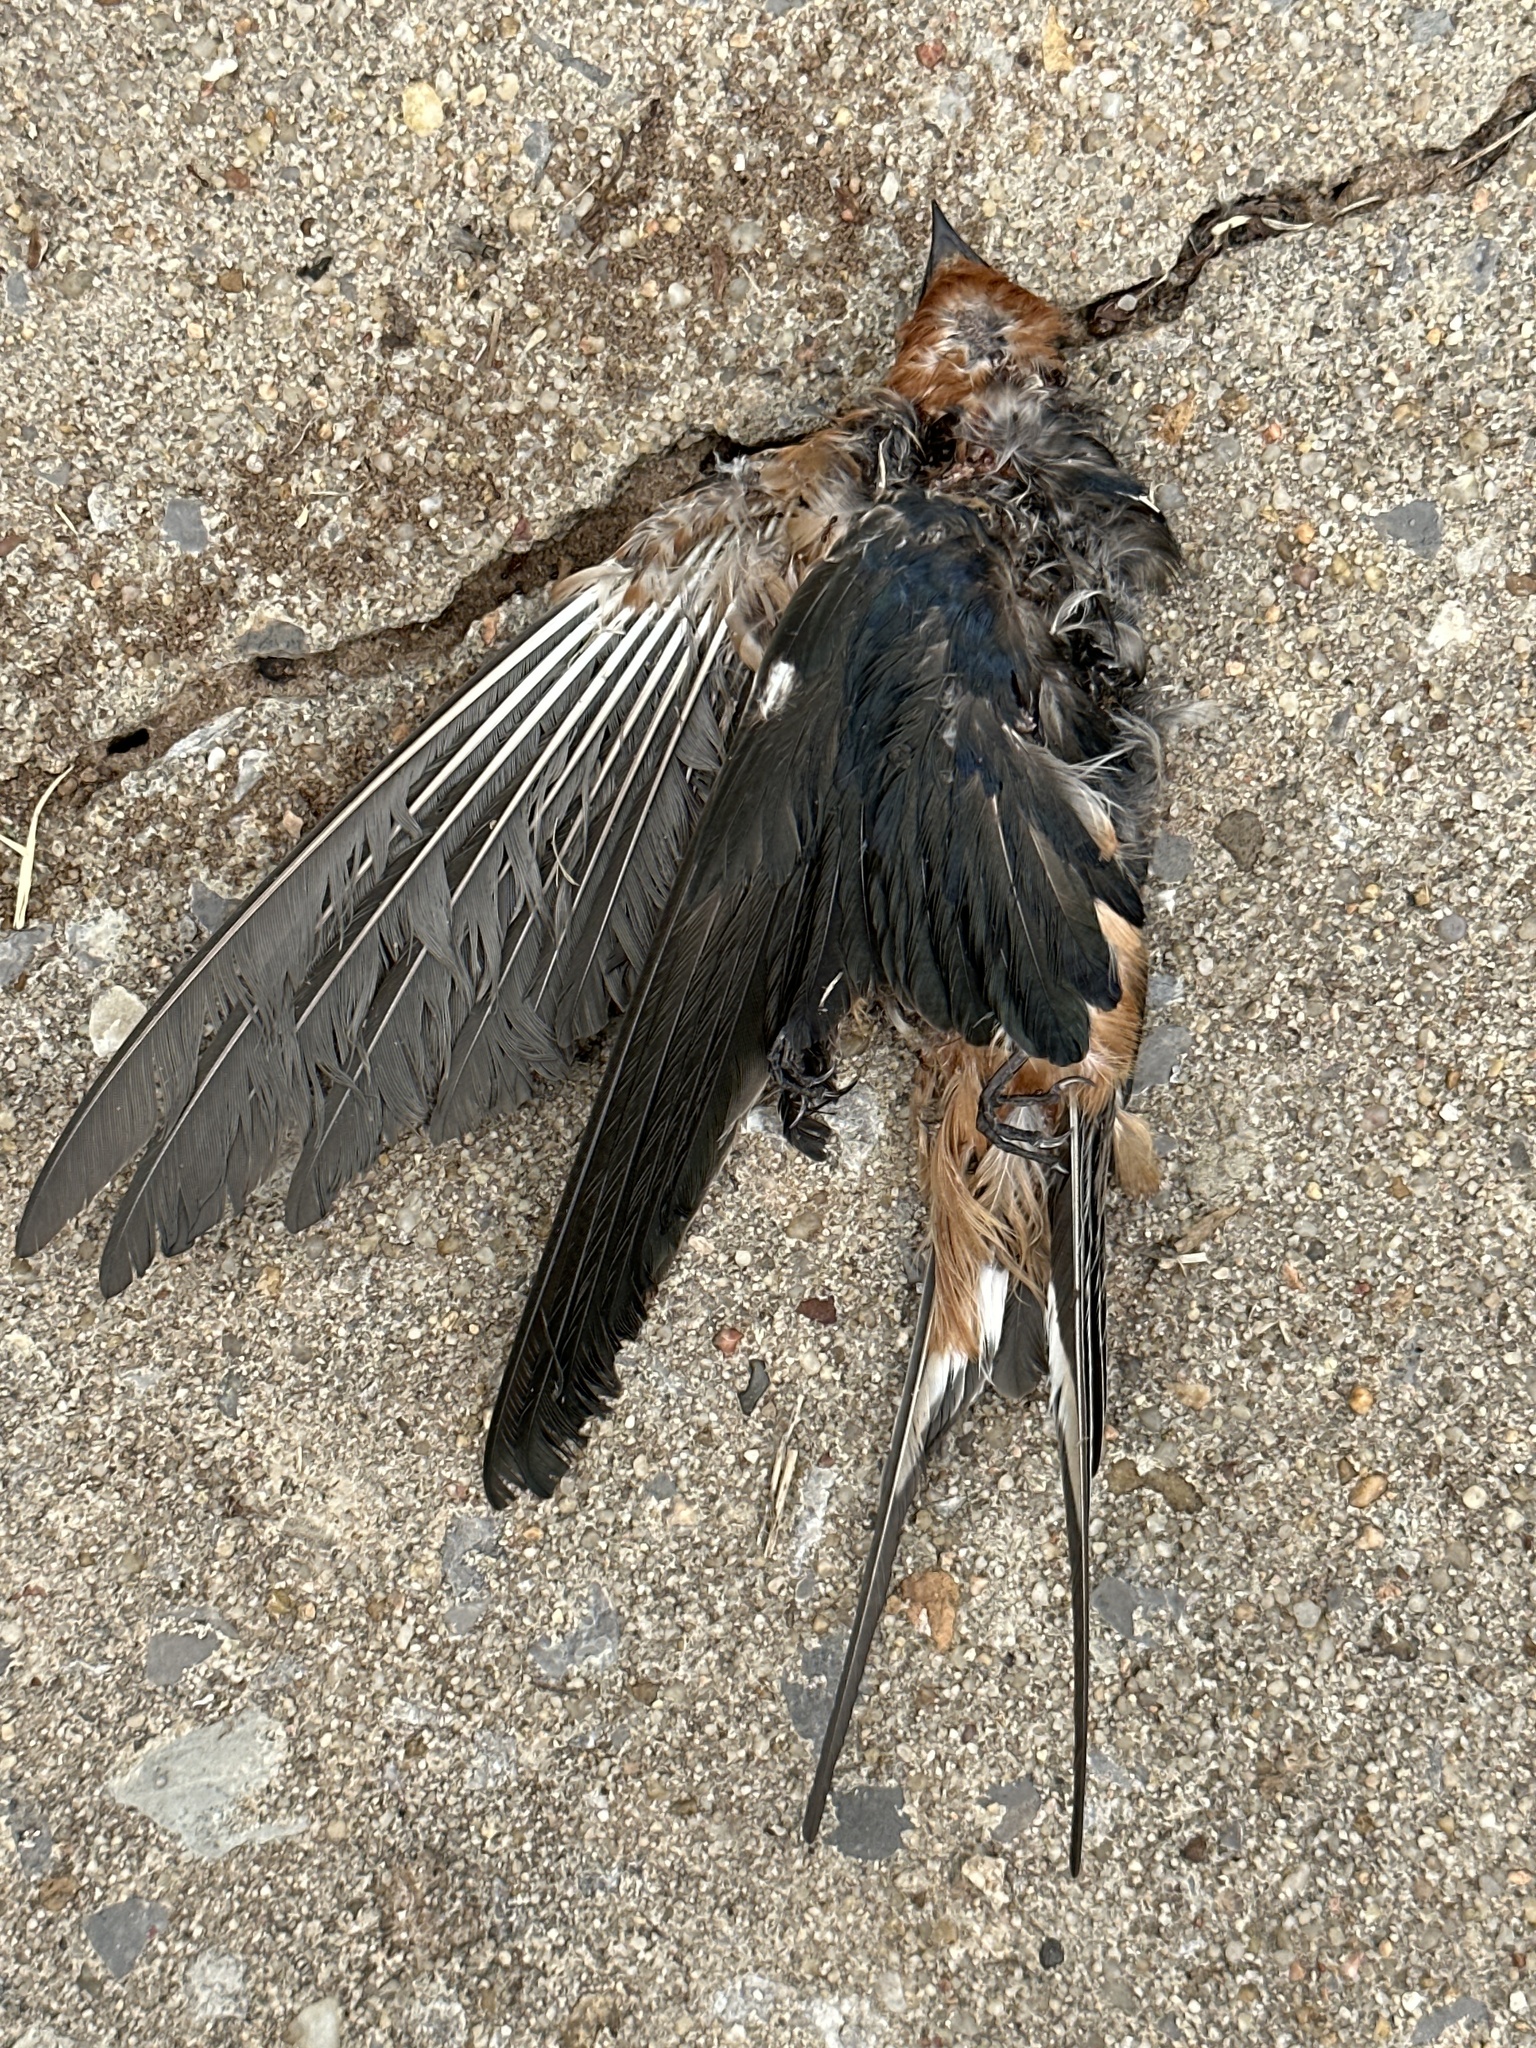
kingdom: Animalia
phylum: Chordata
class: Aves
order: Passeriformes
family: Hirundinidae
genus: Hirundo
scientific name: Hirundo rustica
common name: Barn swallow
